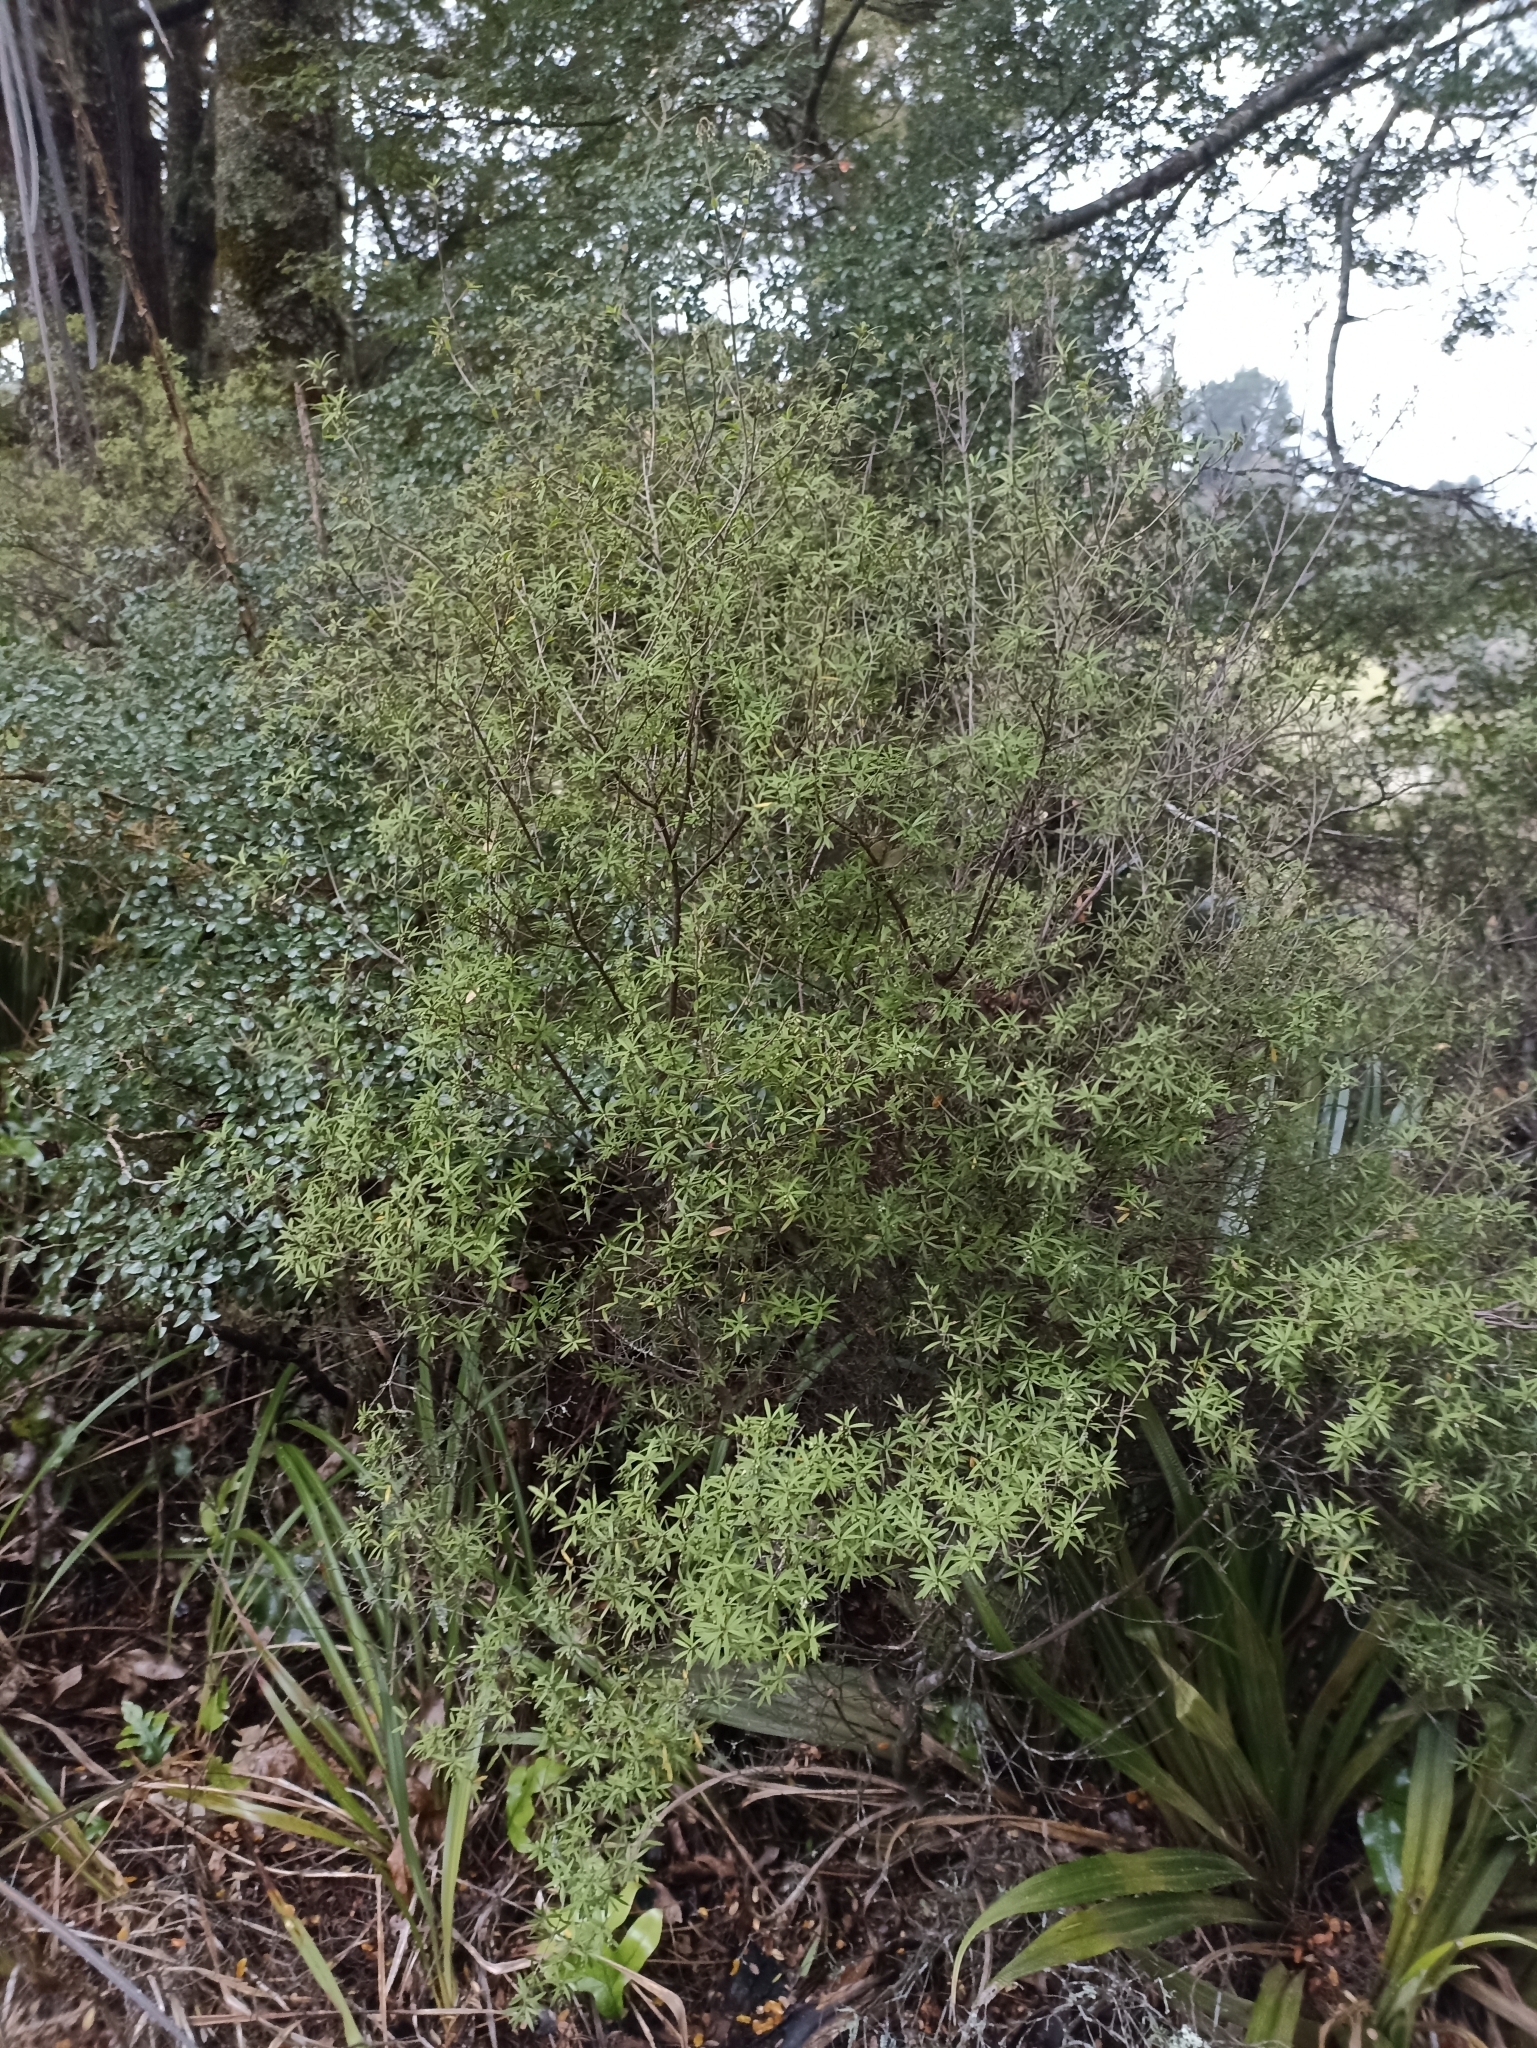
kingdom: Plantae
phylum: Tracheophyta
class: Magnoliopsida
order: Ericales
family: Ericaceae
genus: Leucopogon
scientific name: Leucopogon fasciculatus
